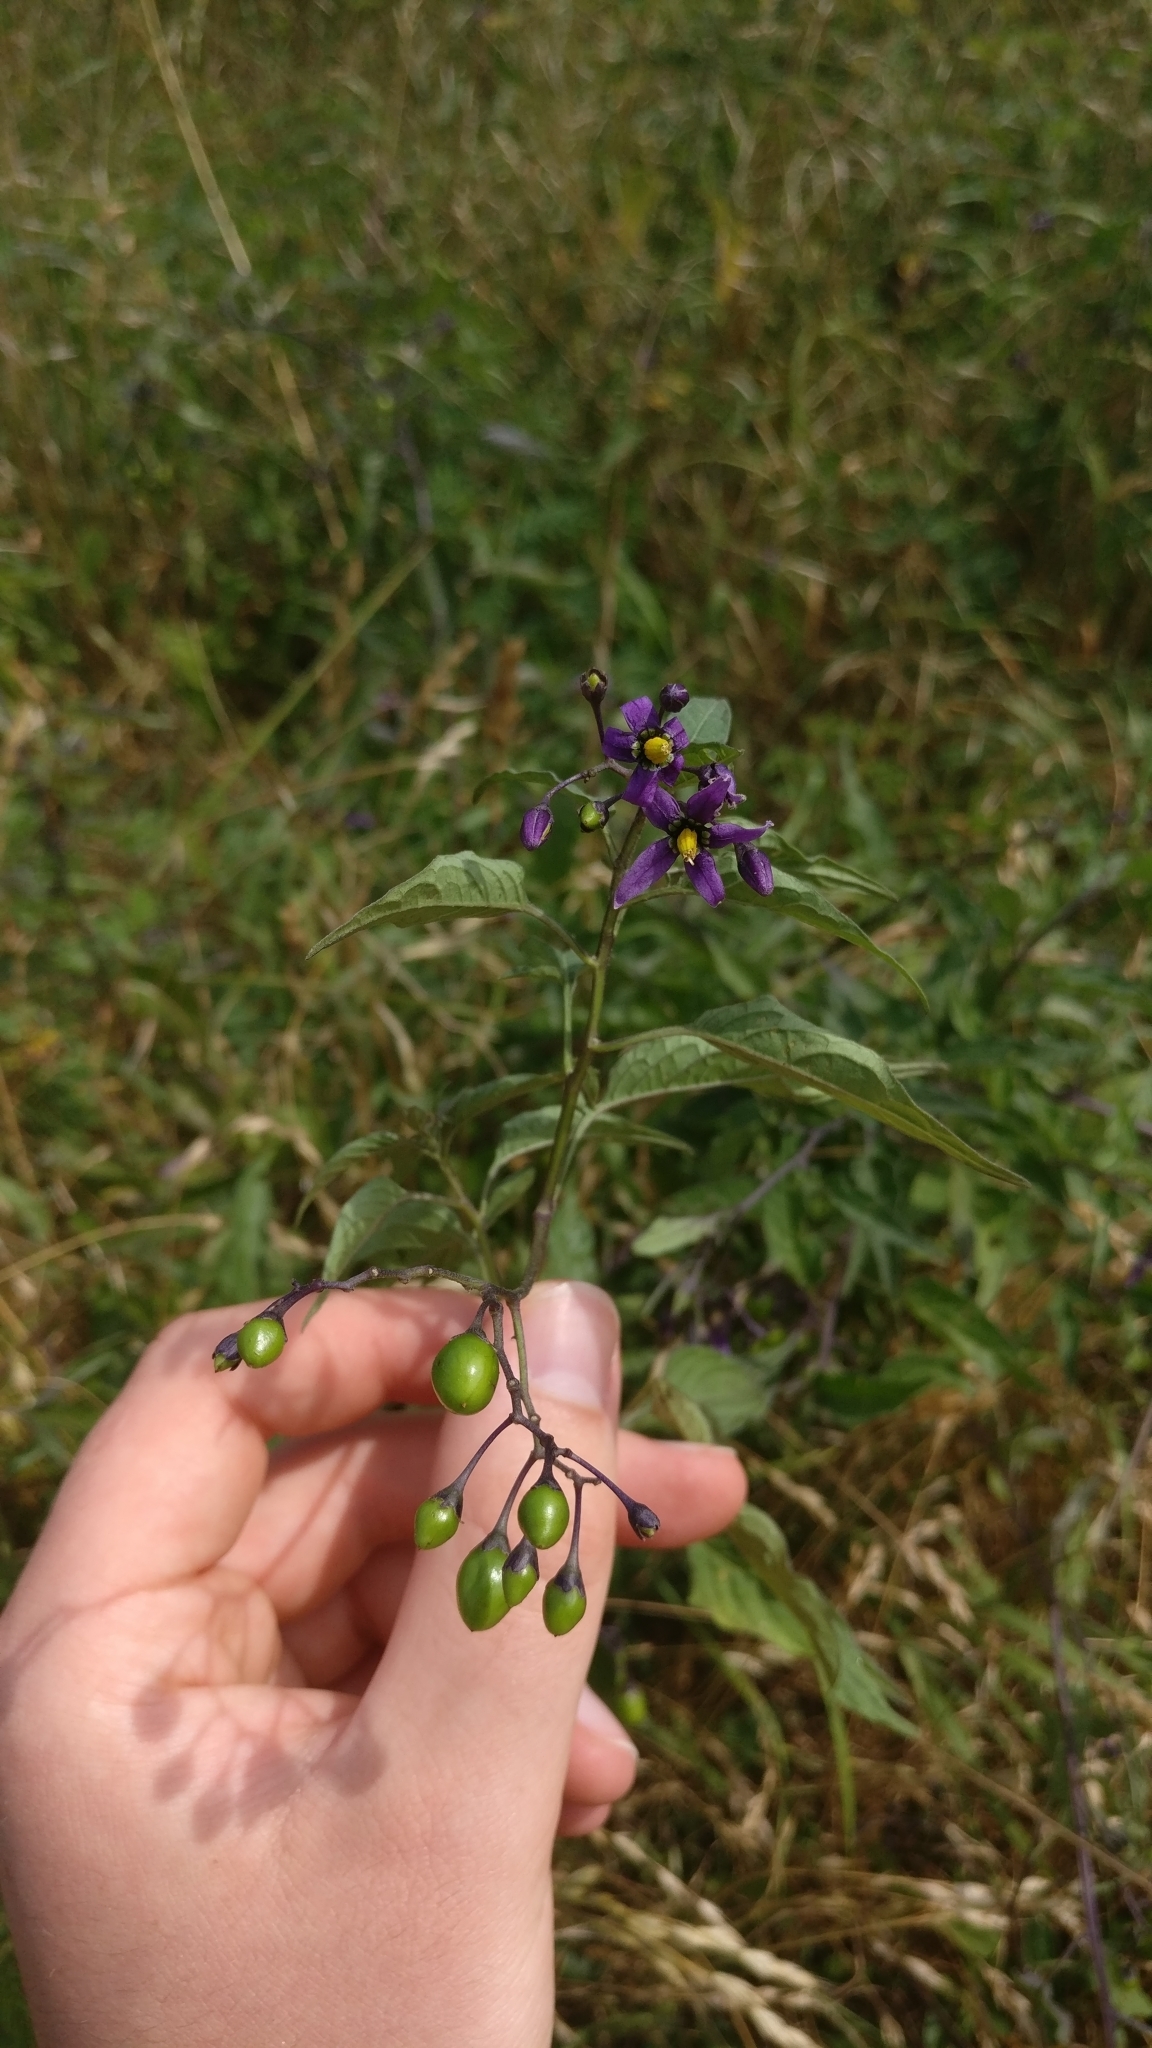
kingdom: Plantae
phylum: Tracheophyta
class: Magnoliopsida
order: Solanales
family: Solanaceae
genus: Solanum
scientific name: Solanum dulcamara
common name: Climbing nightshade
